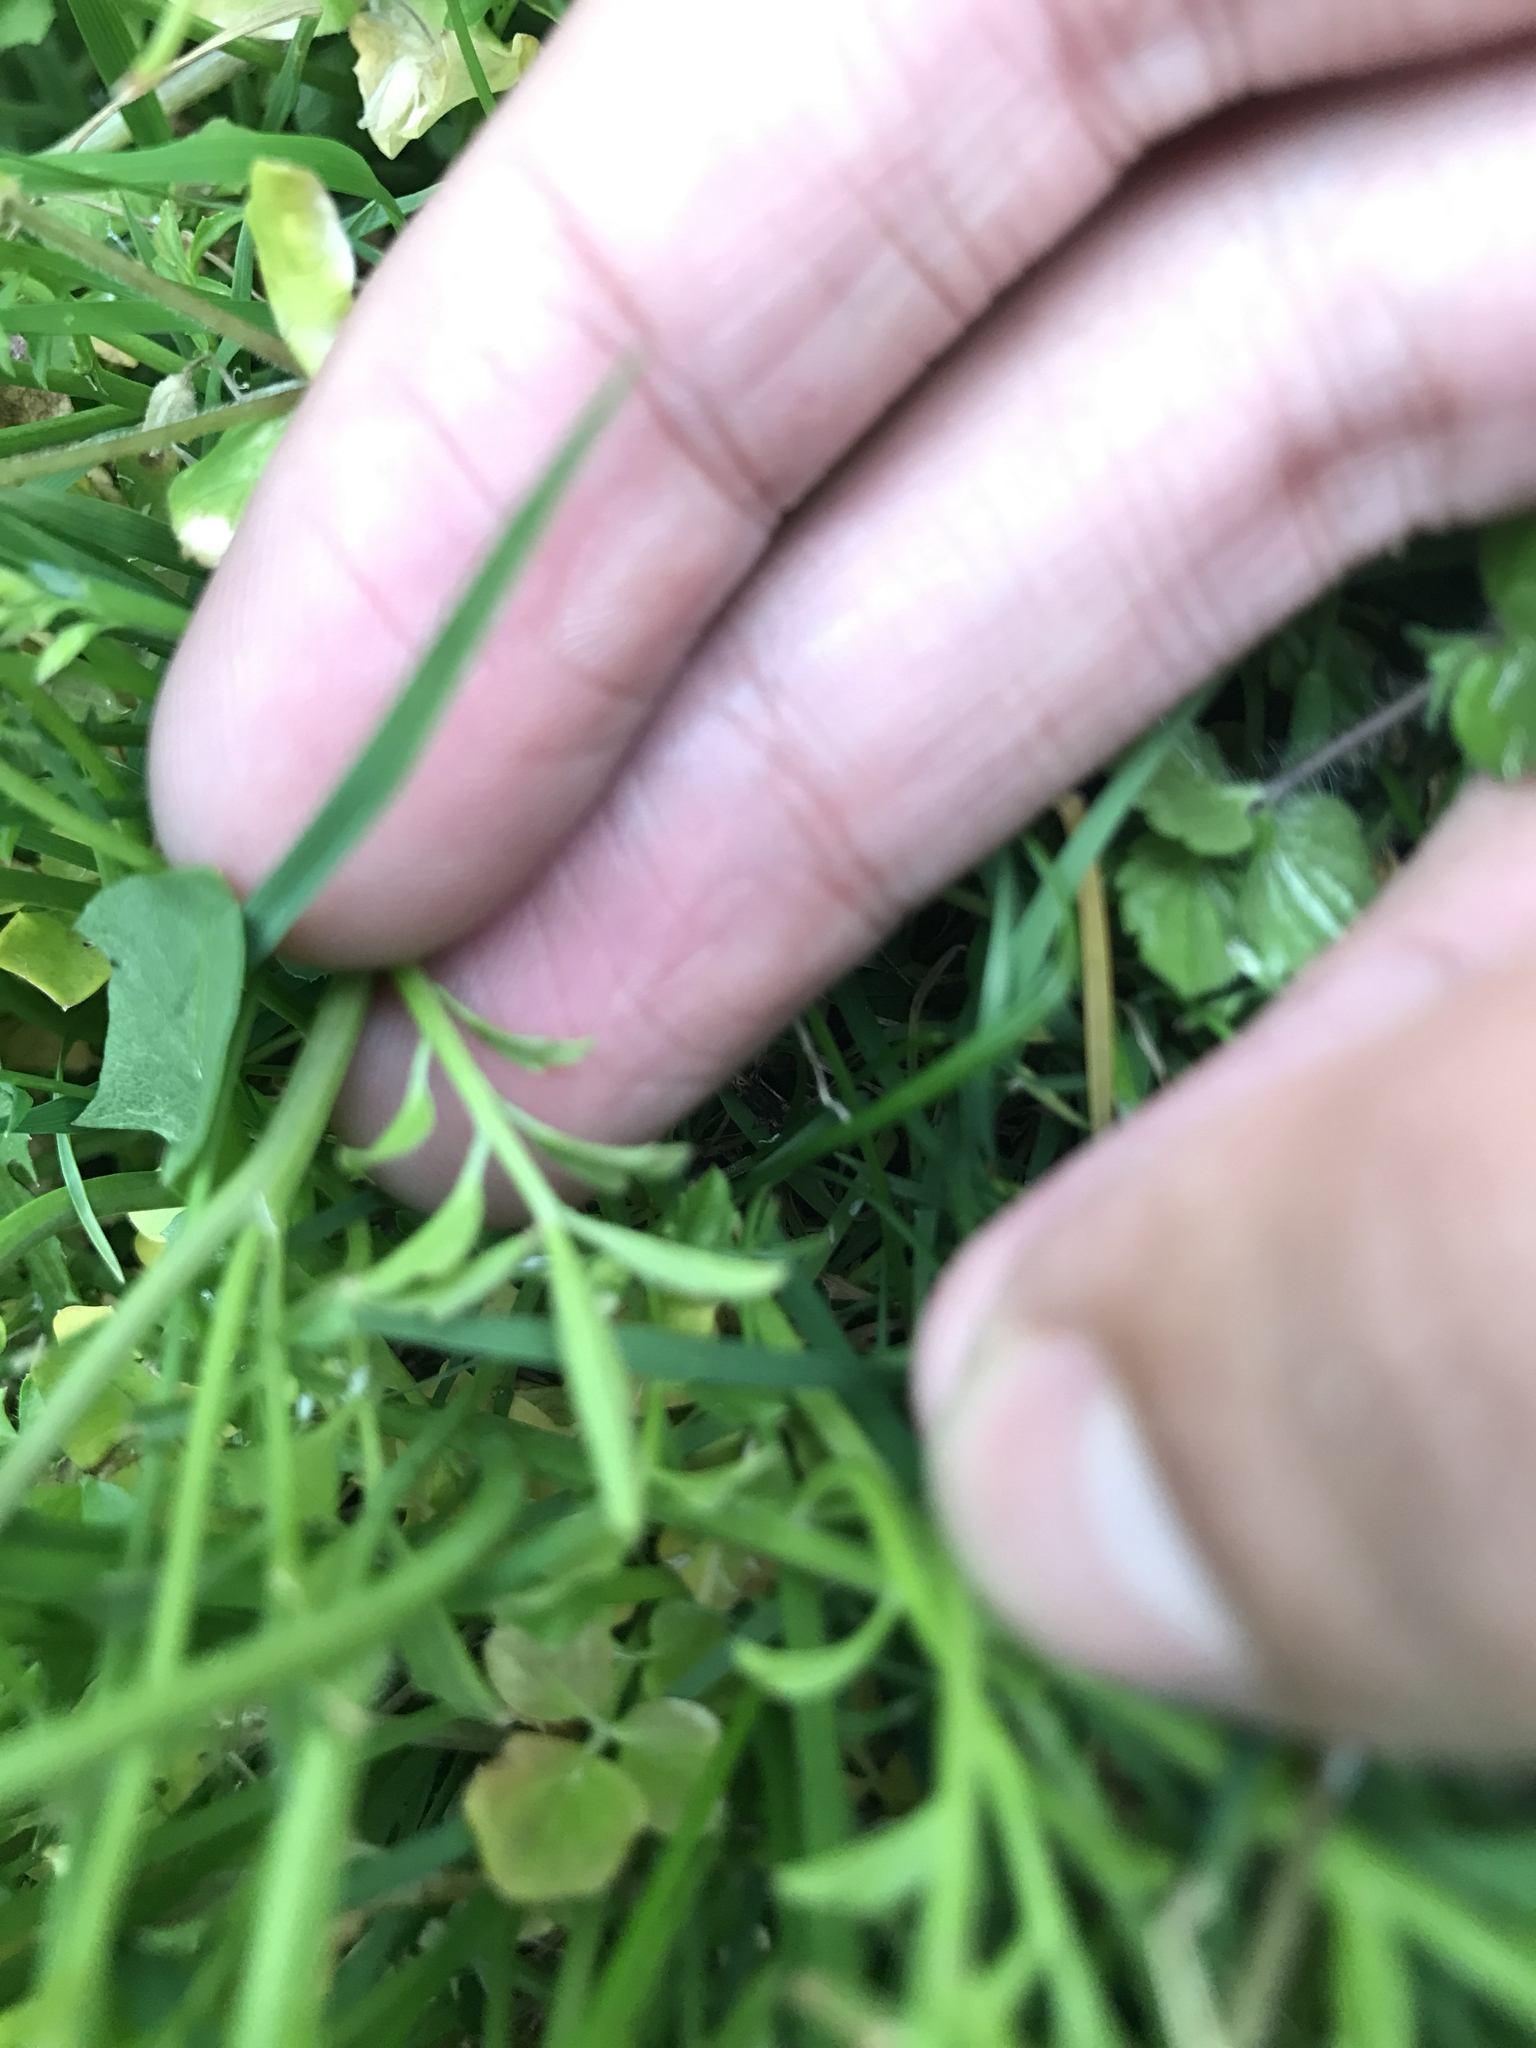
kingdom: Plantae
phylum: Tracheophyta
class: Magnoliopsida
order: Brassicales
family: Brassicaceae
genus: Cardamine
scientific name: Cardamine hirsuta
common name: Hairy bittercress
